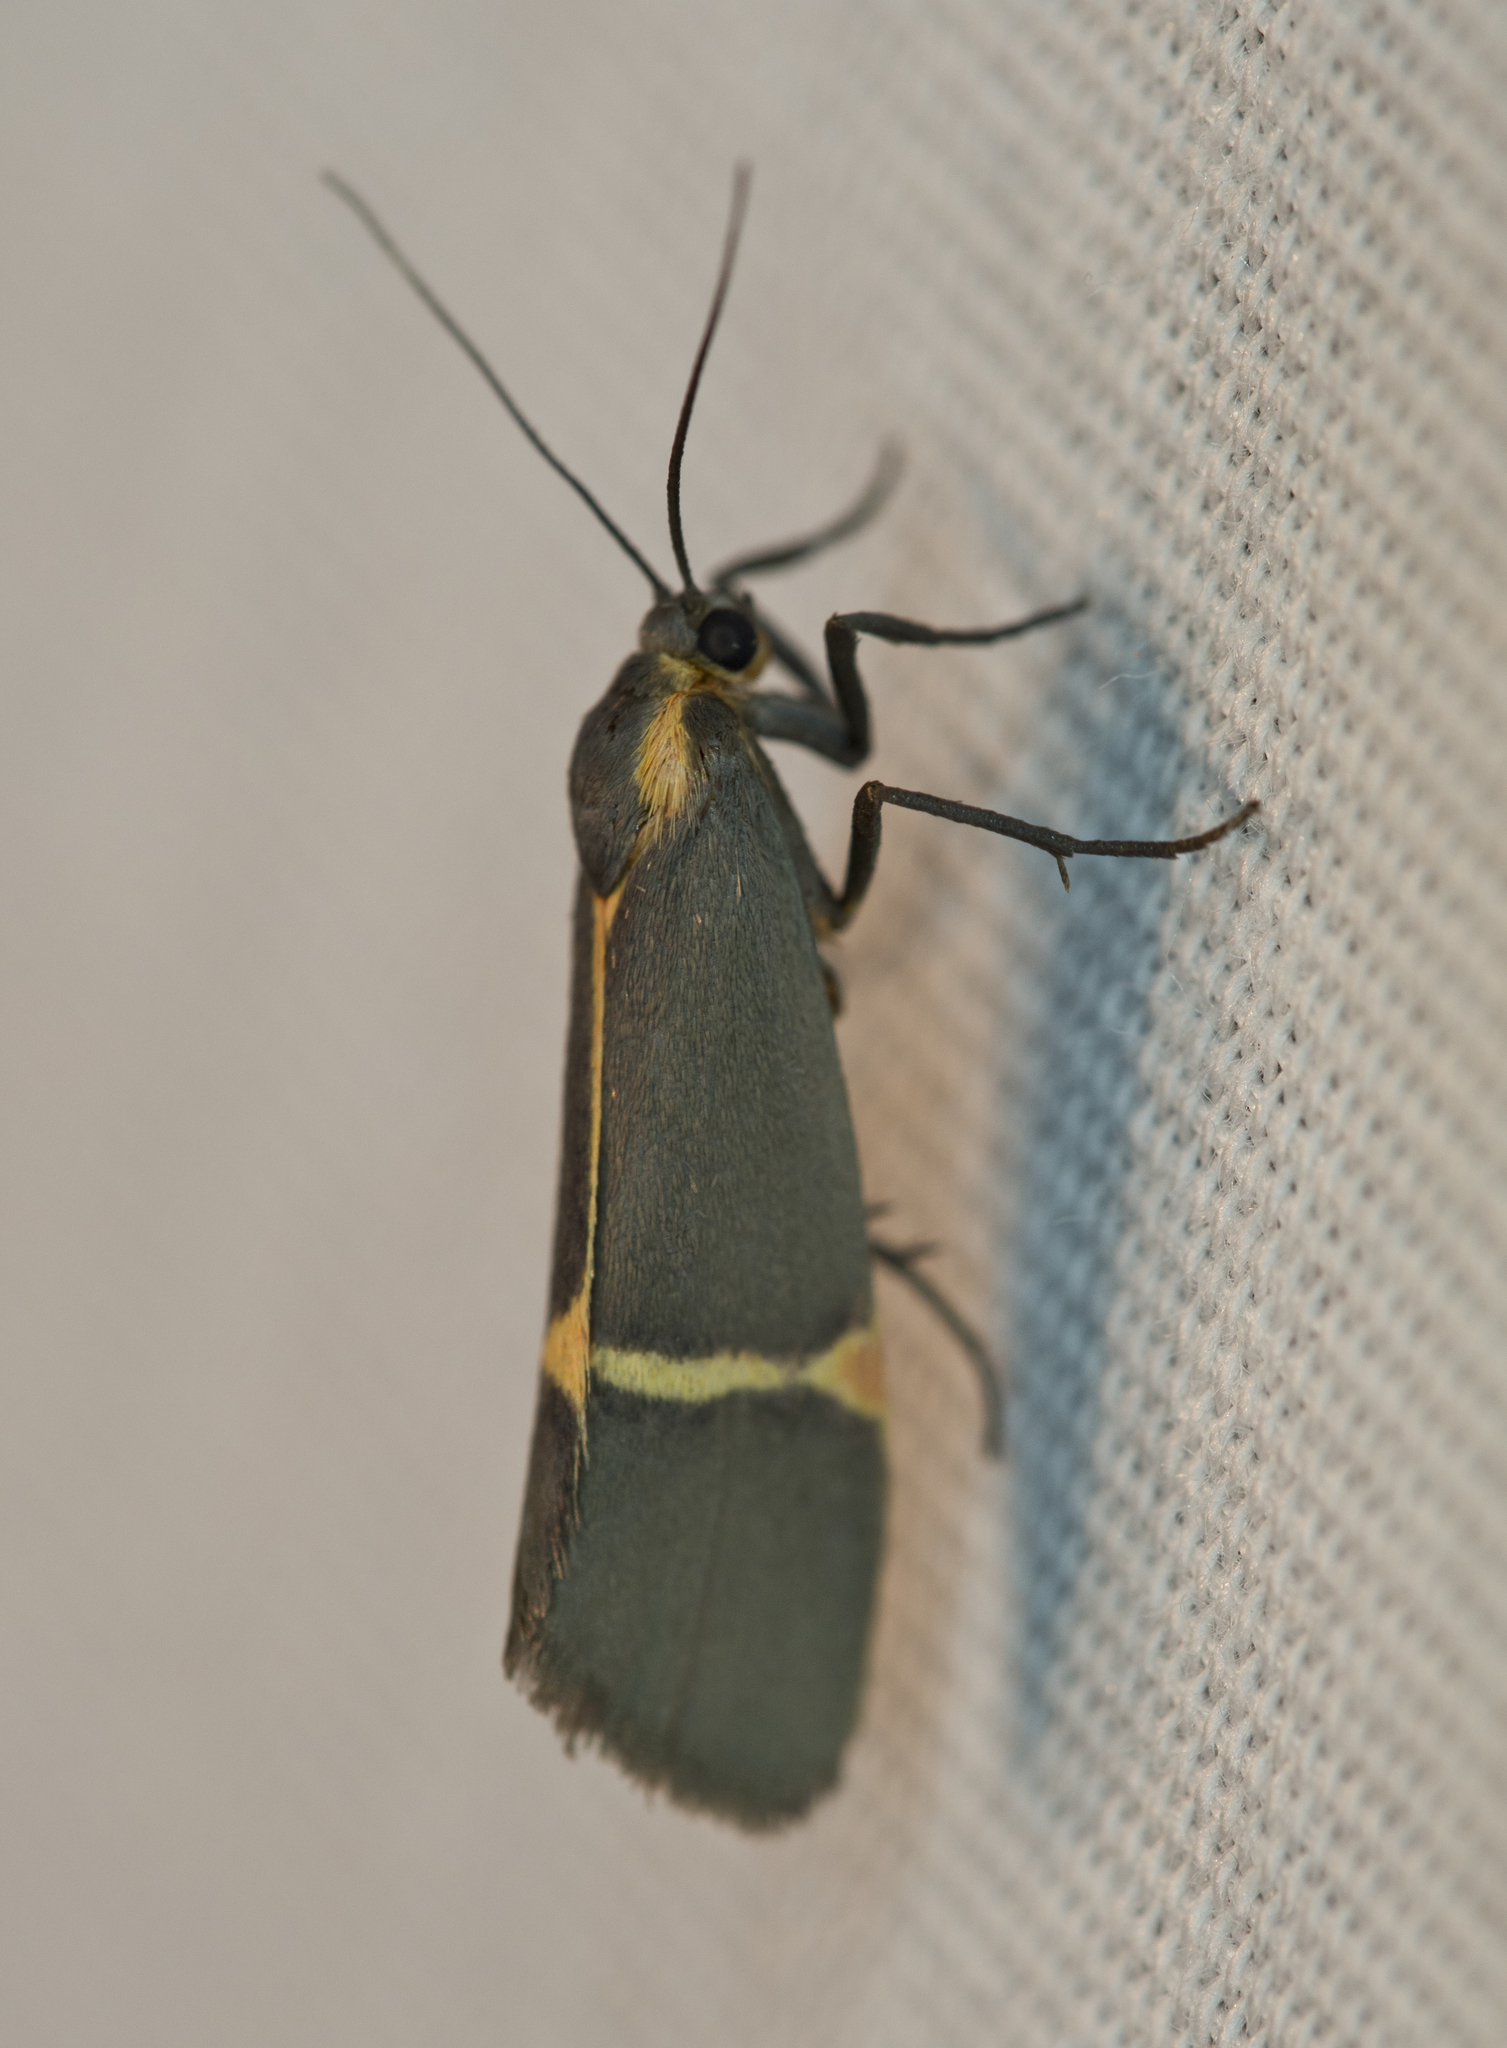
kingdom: Animalia
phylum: Arthropoda
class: Insecta
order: Lepidoptera
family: Erebidae
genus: Cisthene
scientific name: Cisthene barnesii
